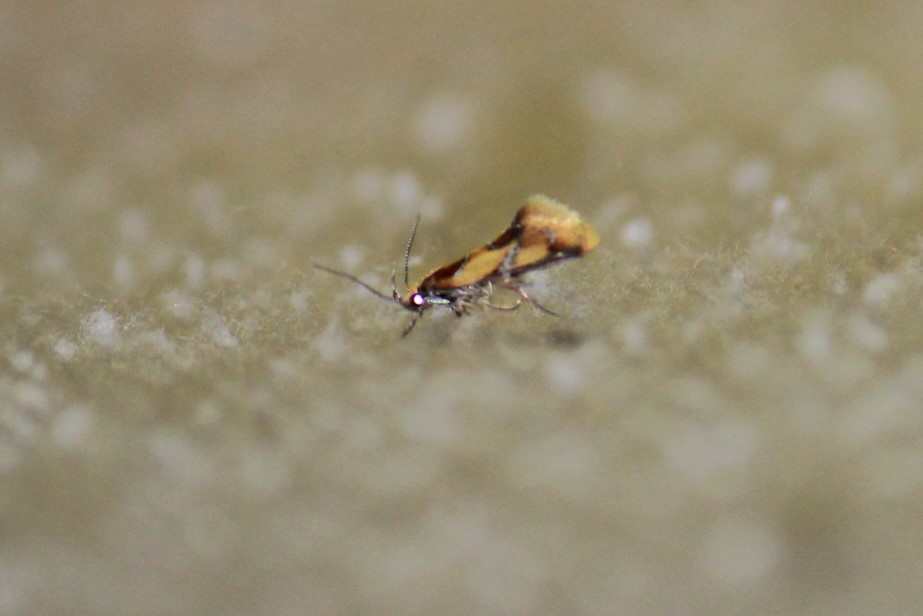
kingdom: Animalia
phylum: Arthropoda
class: Insecta
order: Lepidoptera
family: Oecophoridae
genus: Callima
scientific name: Callima argenticinctella
